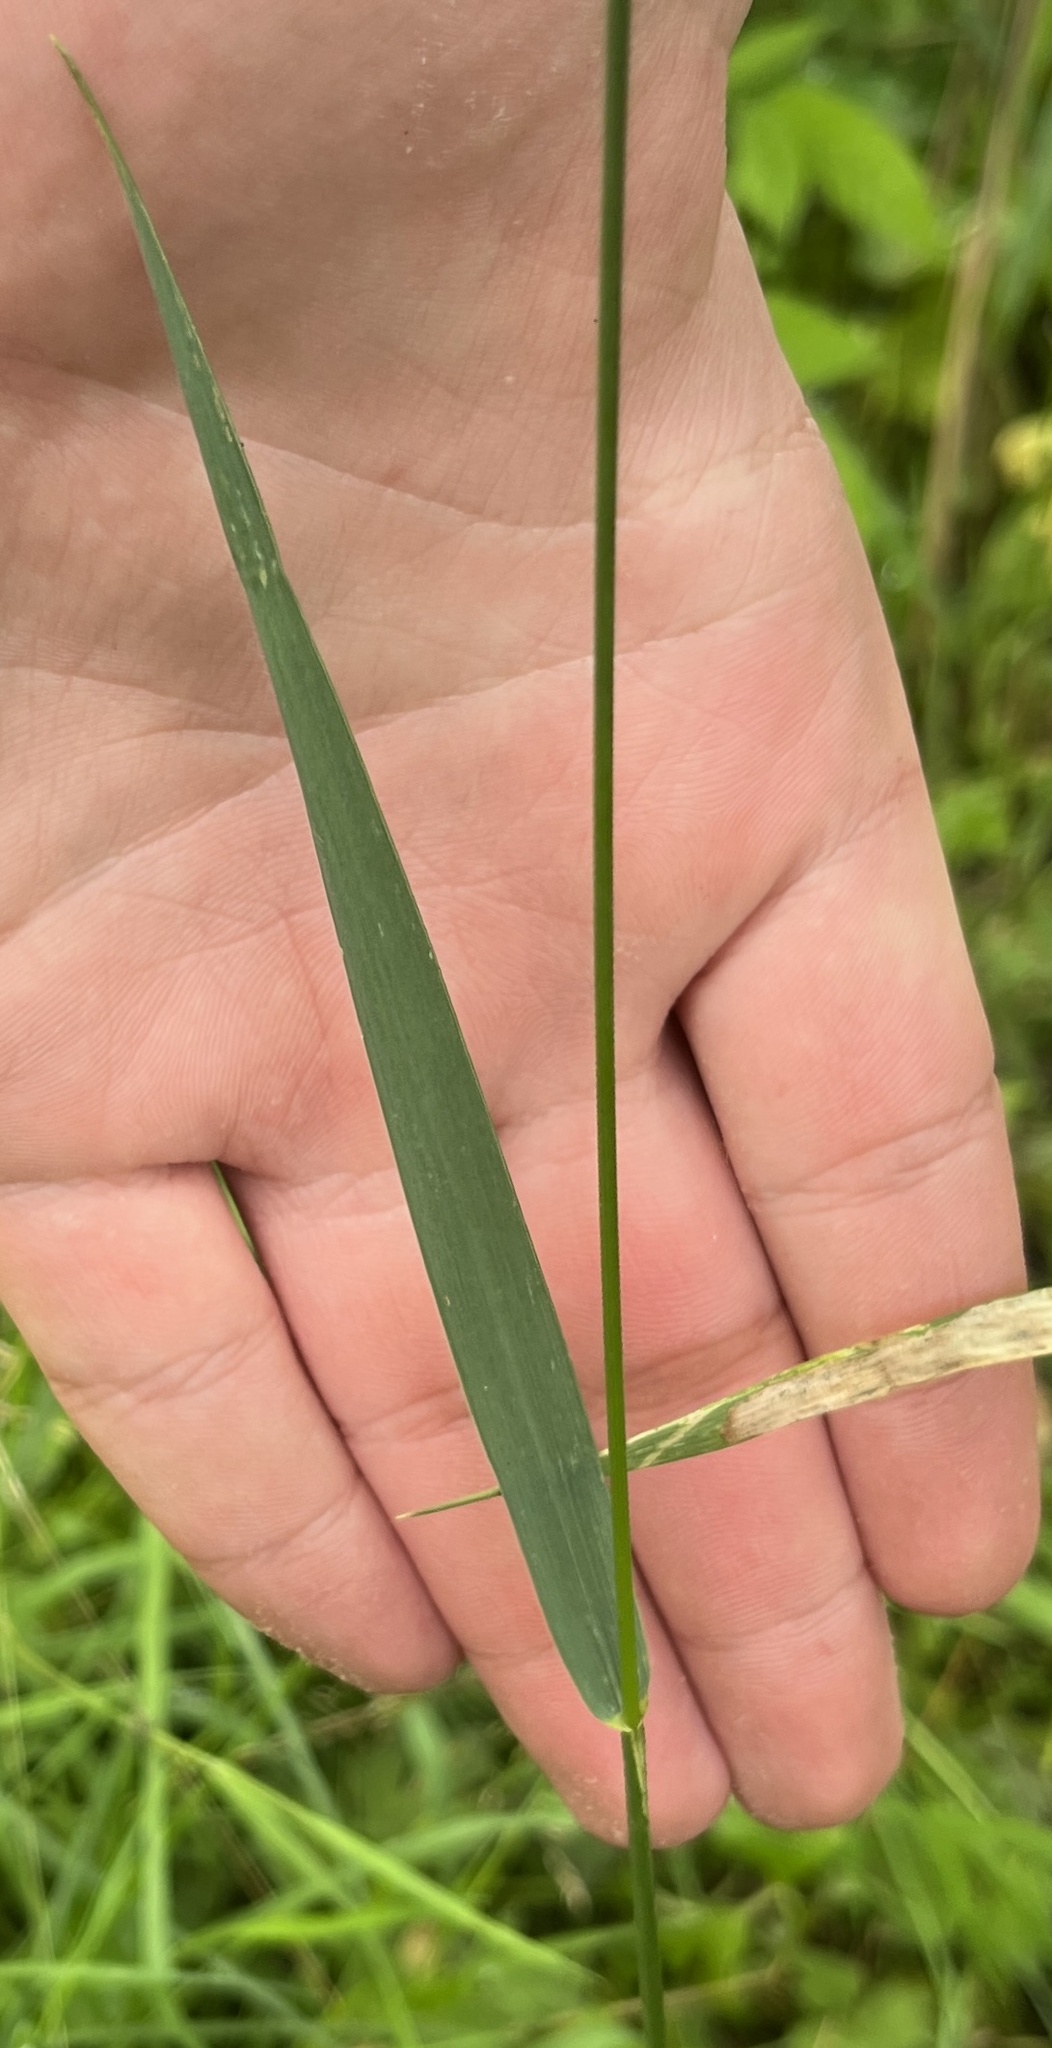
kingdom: Plantae
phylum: Tracheophyta
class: Liliopsida
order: Poales
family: Poaceae
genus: Elymus
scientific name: Elymus repens
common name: Quackgrass
